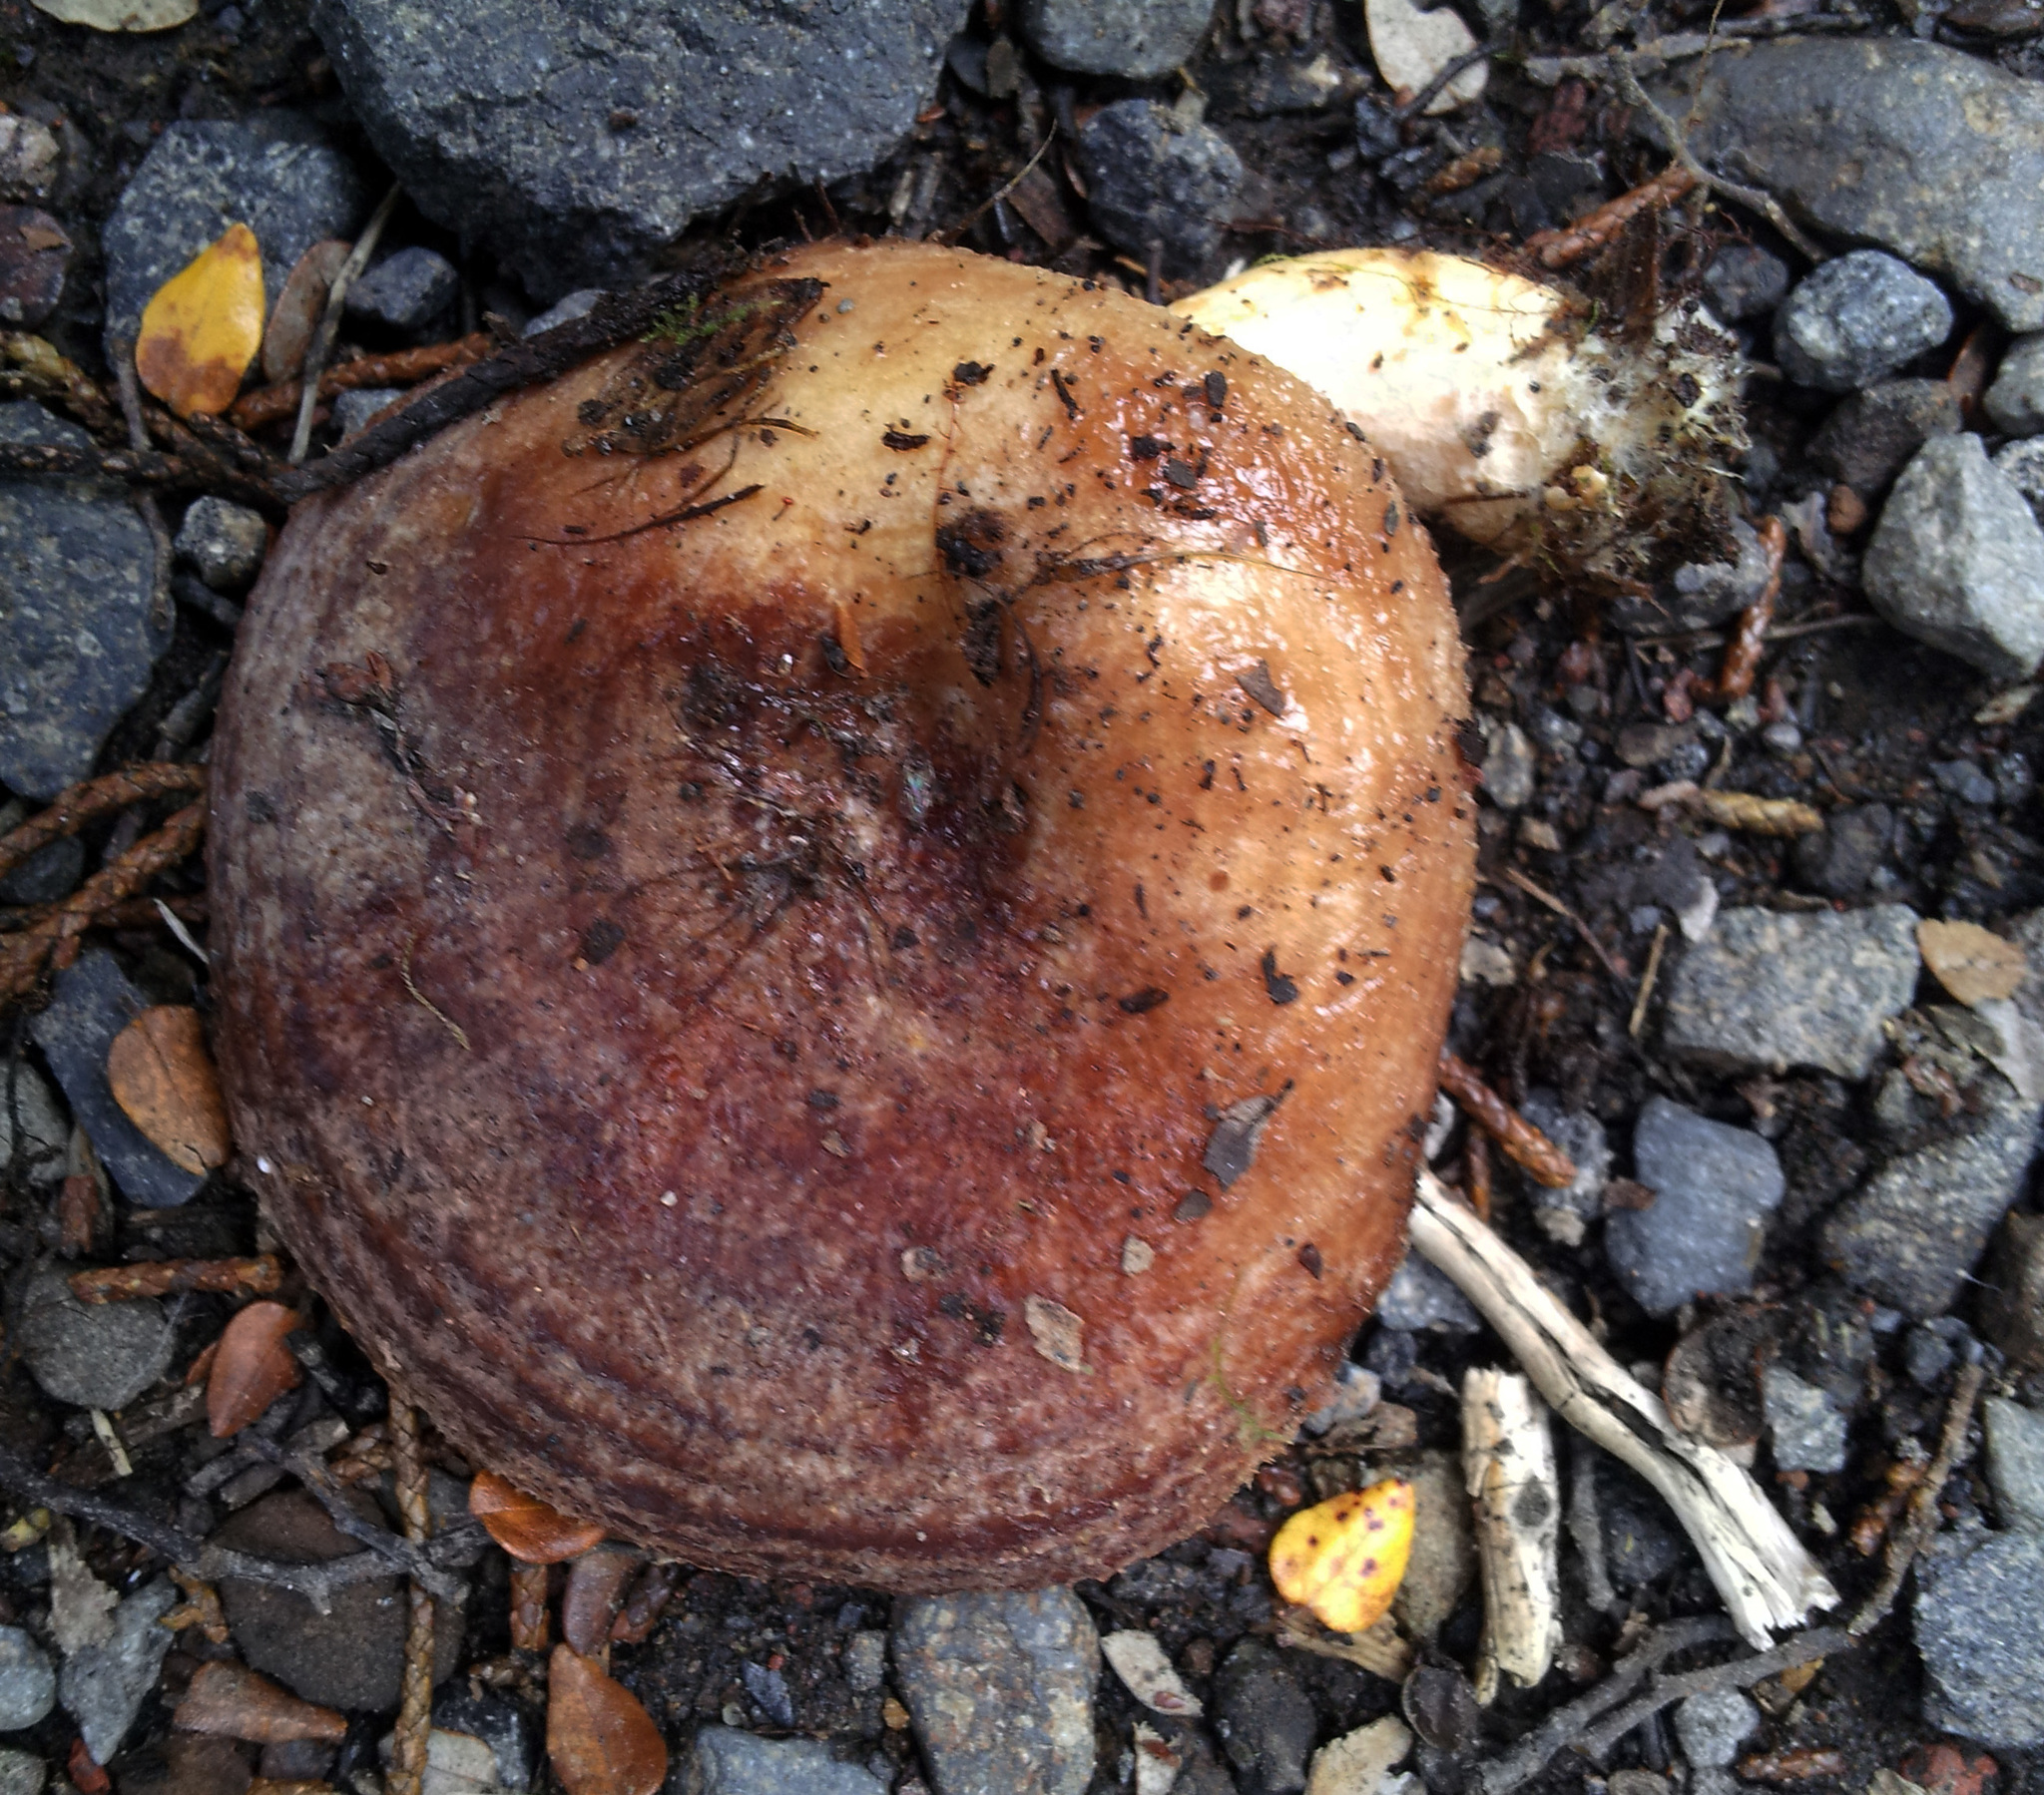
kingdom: Fungi
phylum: Basidiomycota
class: Agaricomycetes
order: Russulales
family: Russulaceae
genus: Lactarius
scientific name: Lactarius tawai
